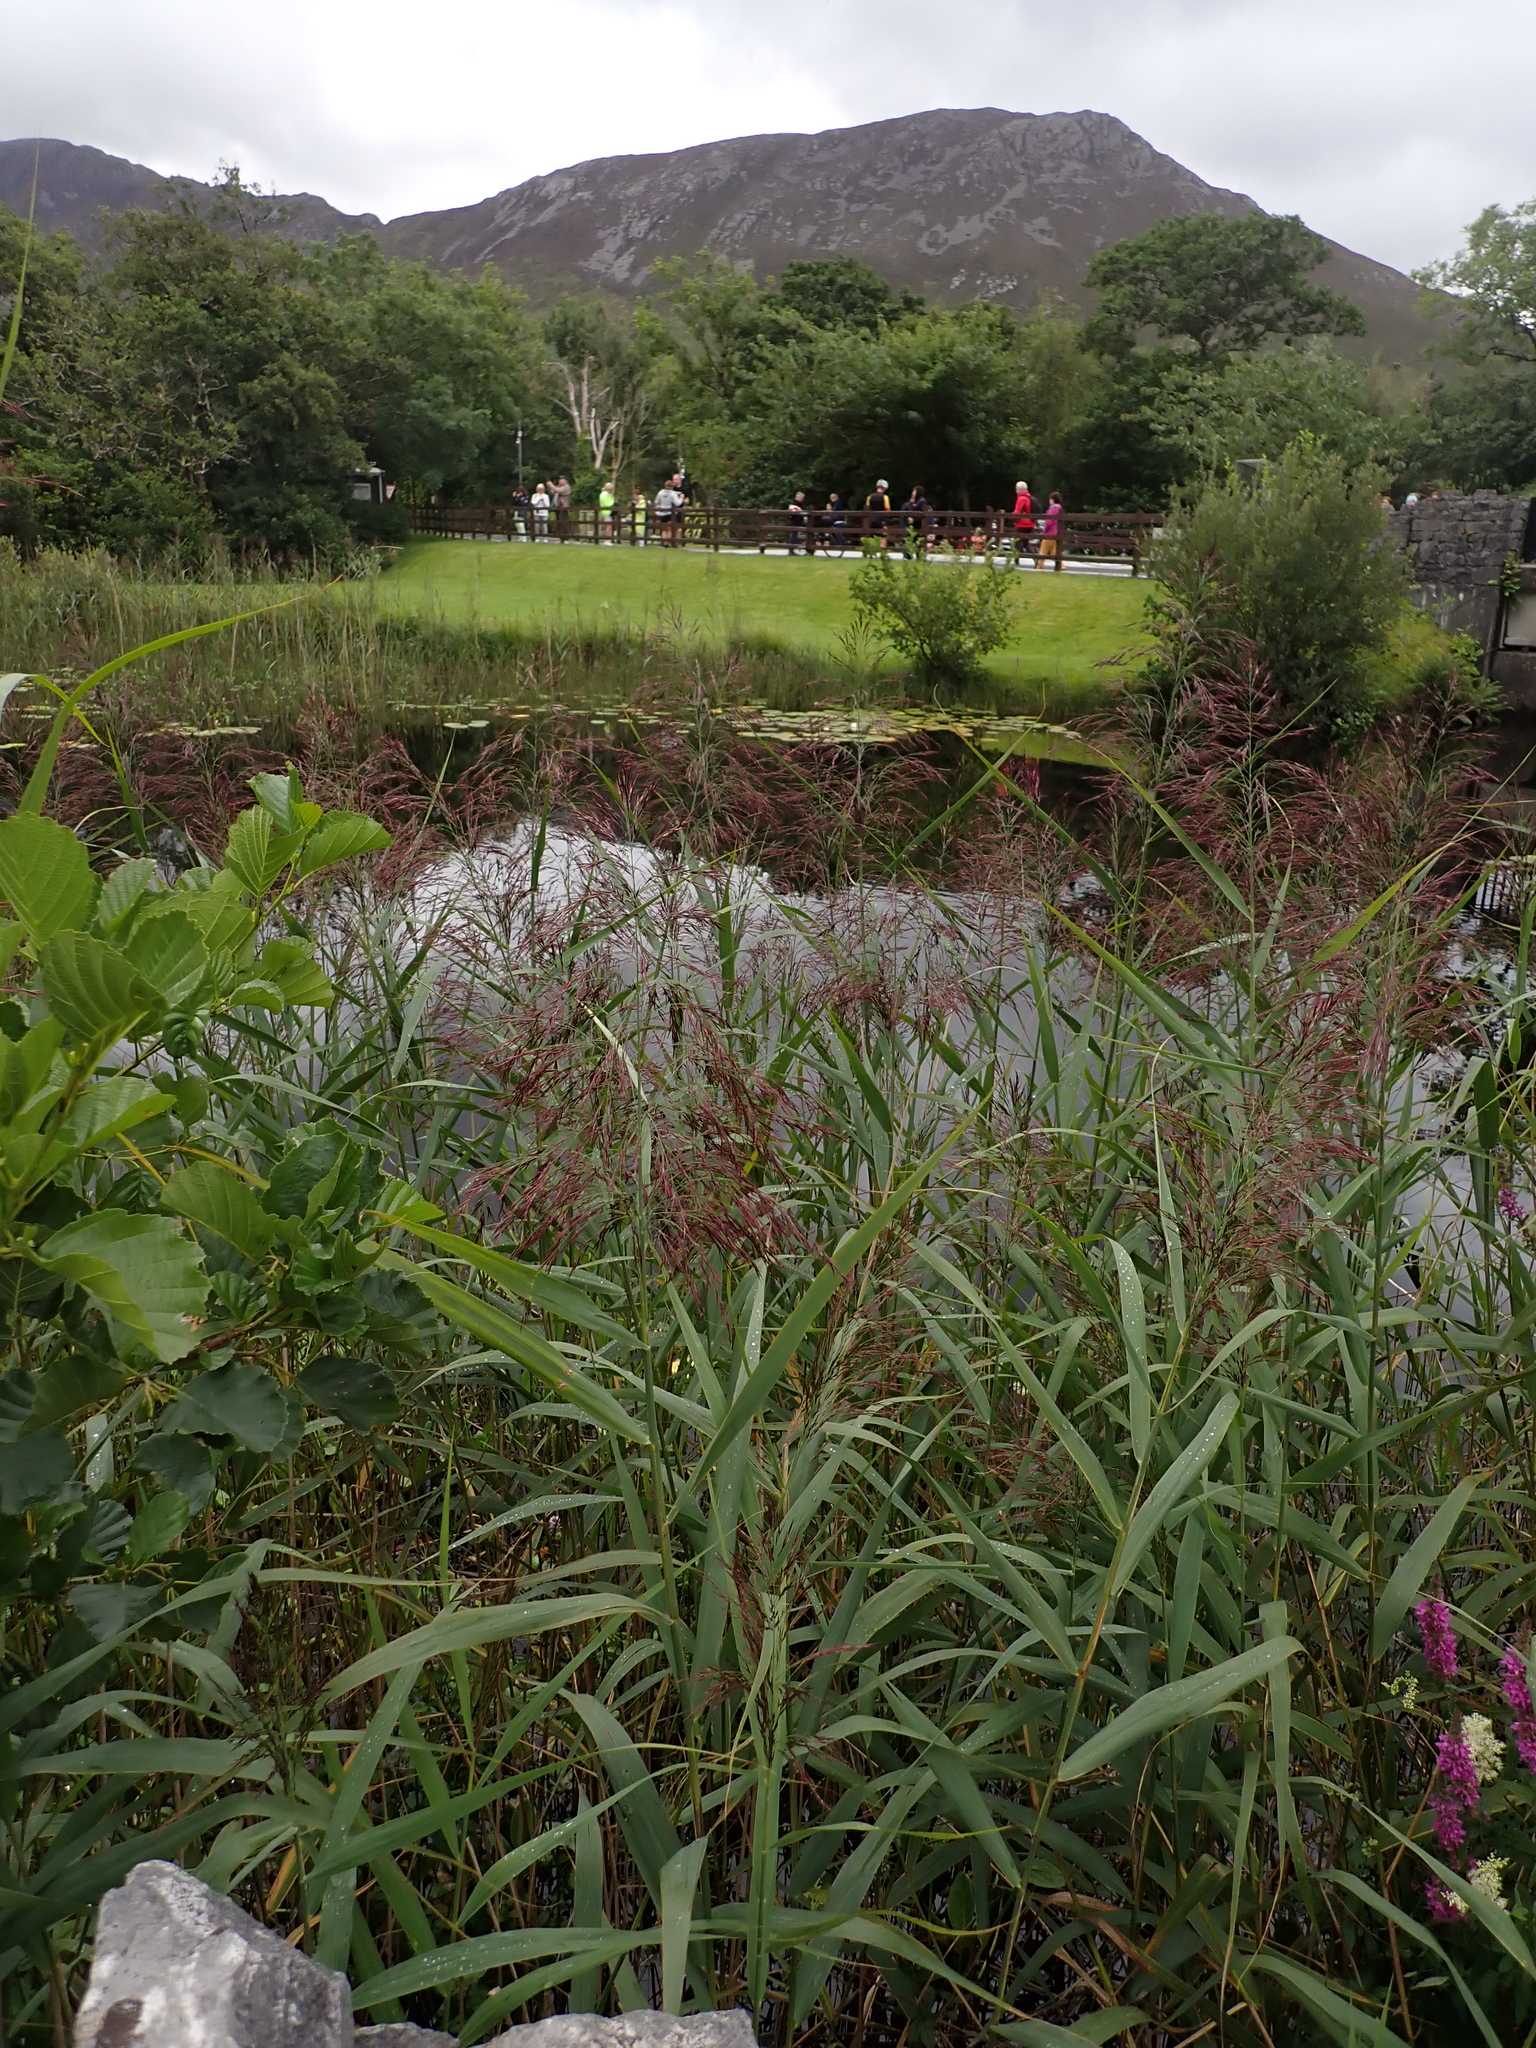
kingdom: Plantae
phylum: Tracheophyta
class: Liliopsida
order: Poales
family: Poaceae
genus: Phragmites
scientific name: Phragmites australis
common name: Common reed
